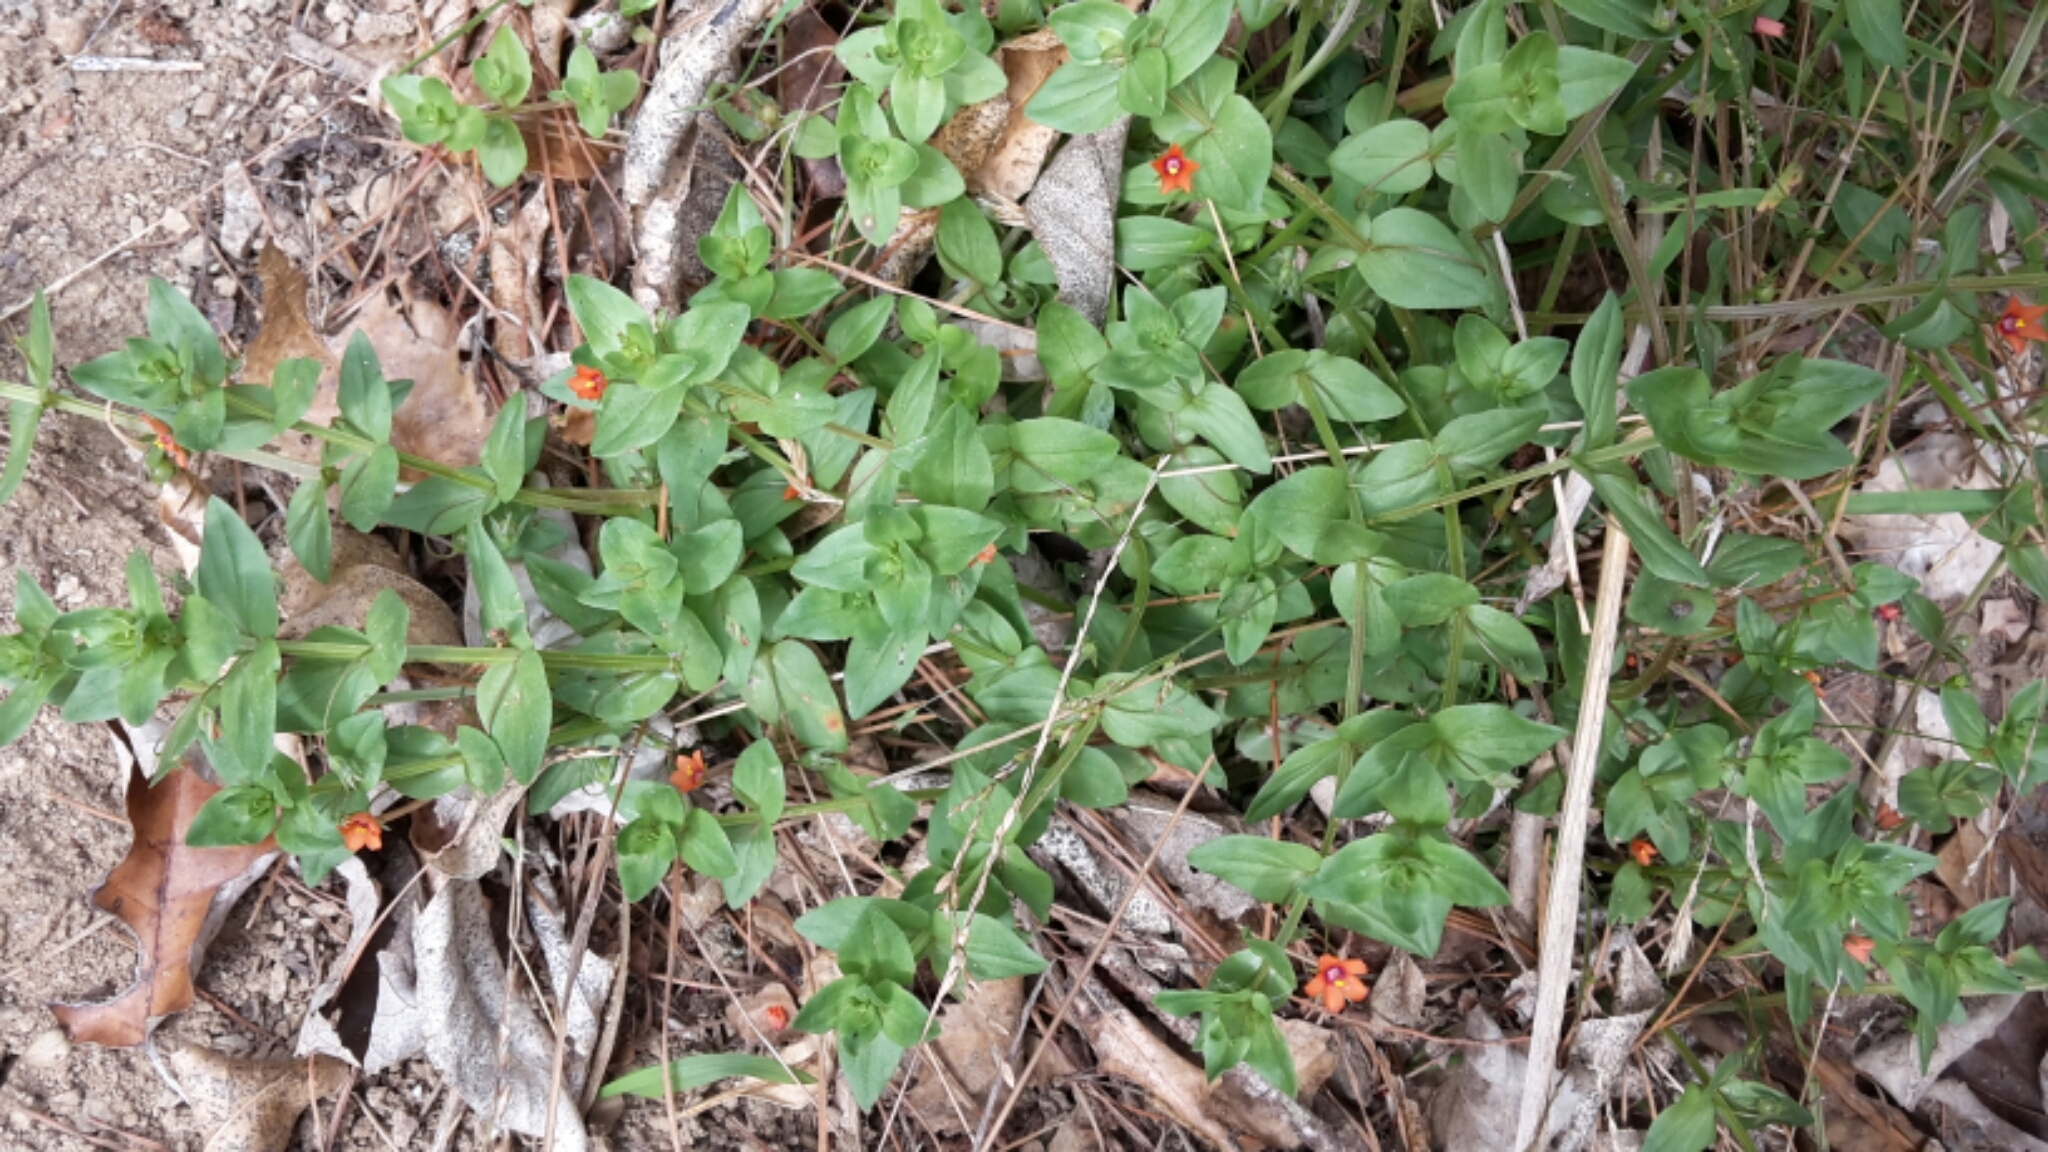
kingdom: Plantae
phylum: Tracheophyta
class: Magnoliopsida
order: Ericales
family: Primulaceae
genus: Lysimachia
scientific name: Lysimachia arvensis
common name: Scarlet pimpernel
